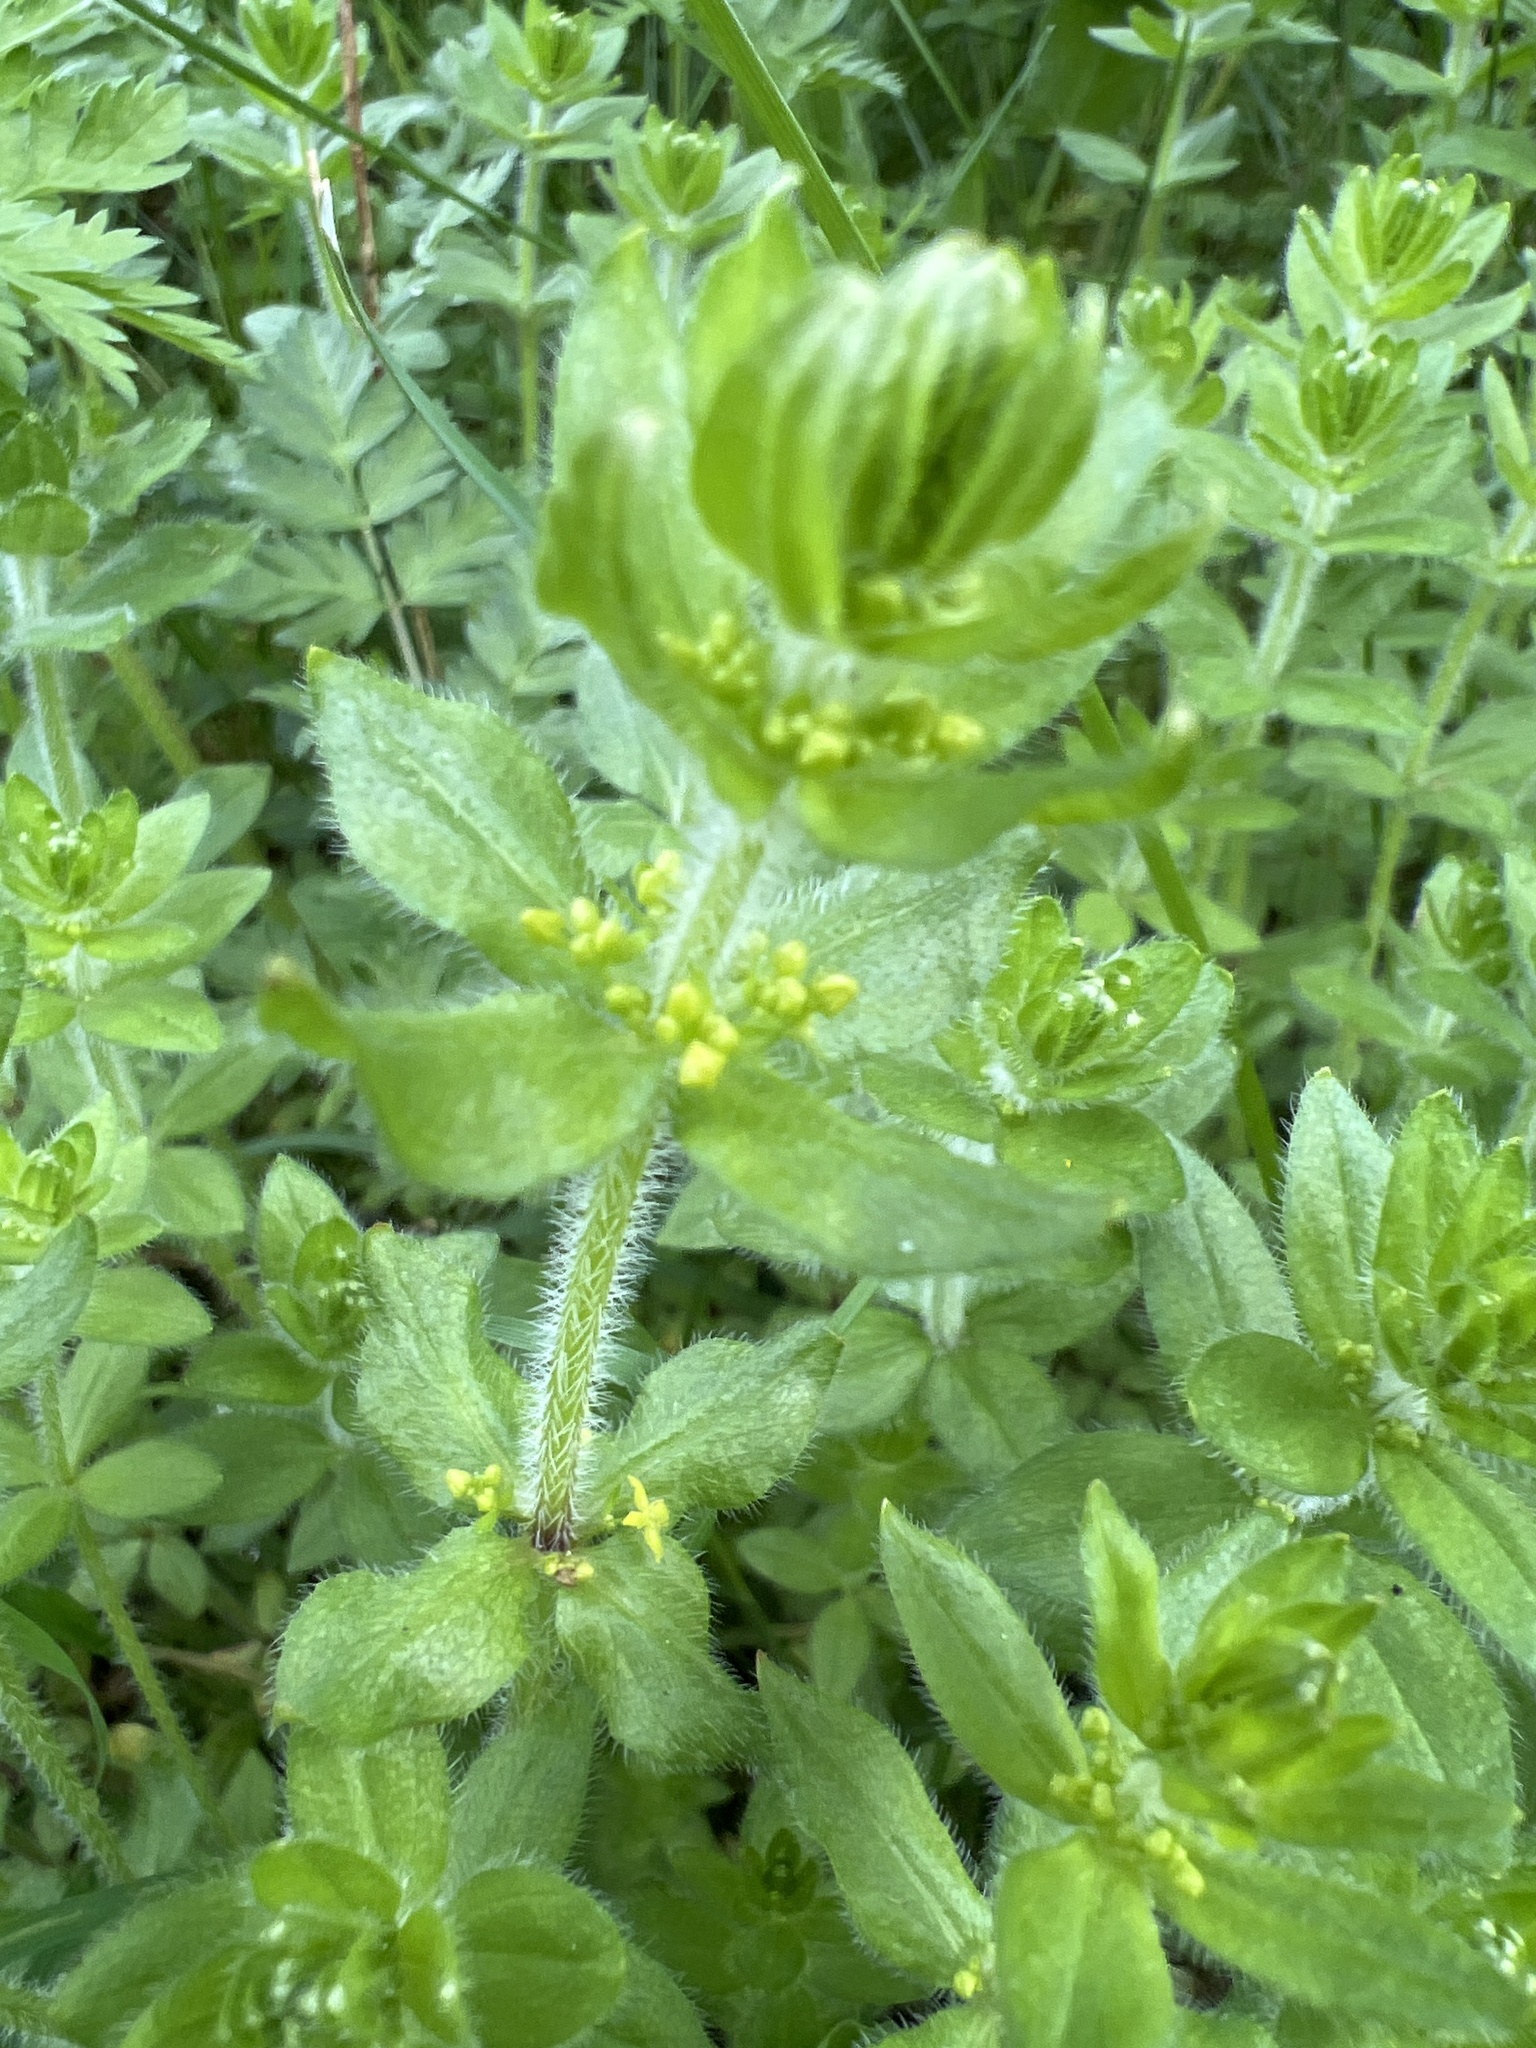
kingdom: Plantae
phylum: Tracheophyta
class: Magnoliopsida
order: Gentianales
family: Rubiaceae
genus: Cruciata
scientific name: Cruciata laevipes
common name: Crosswort
